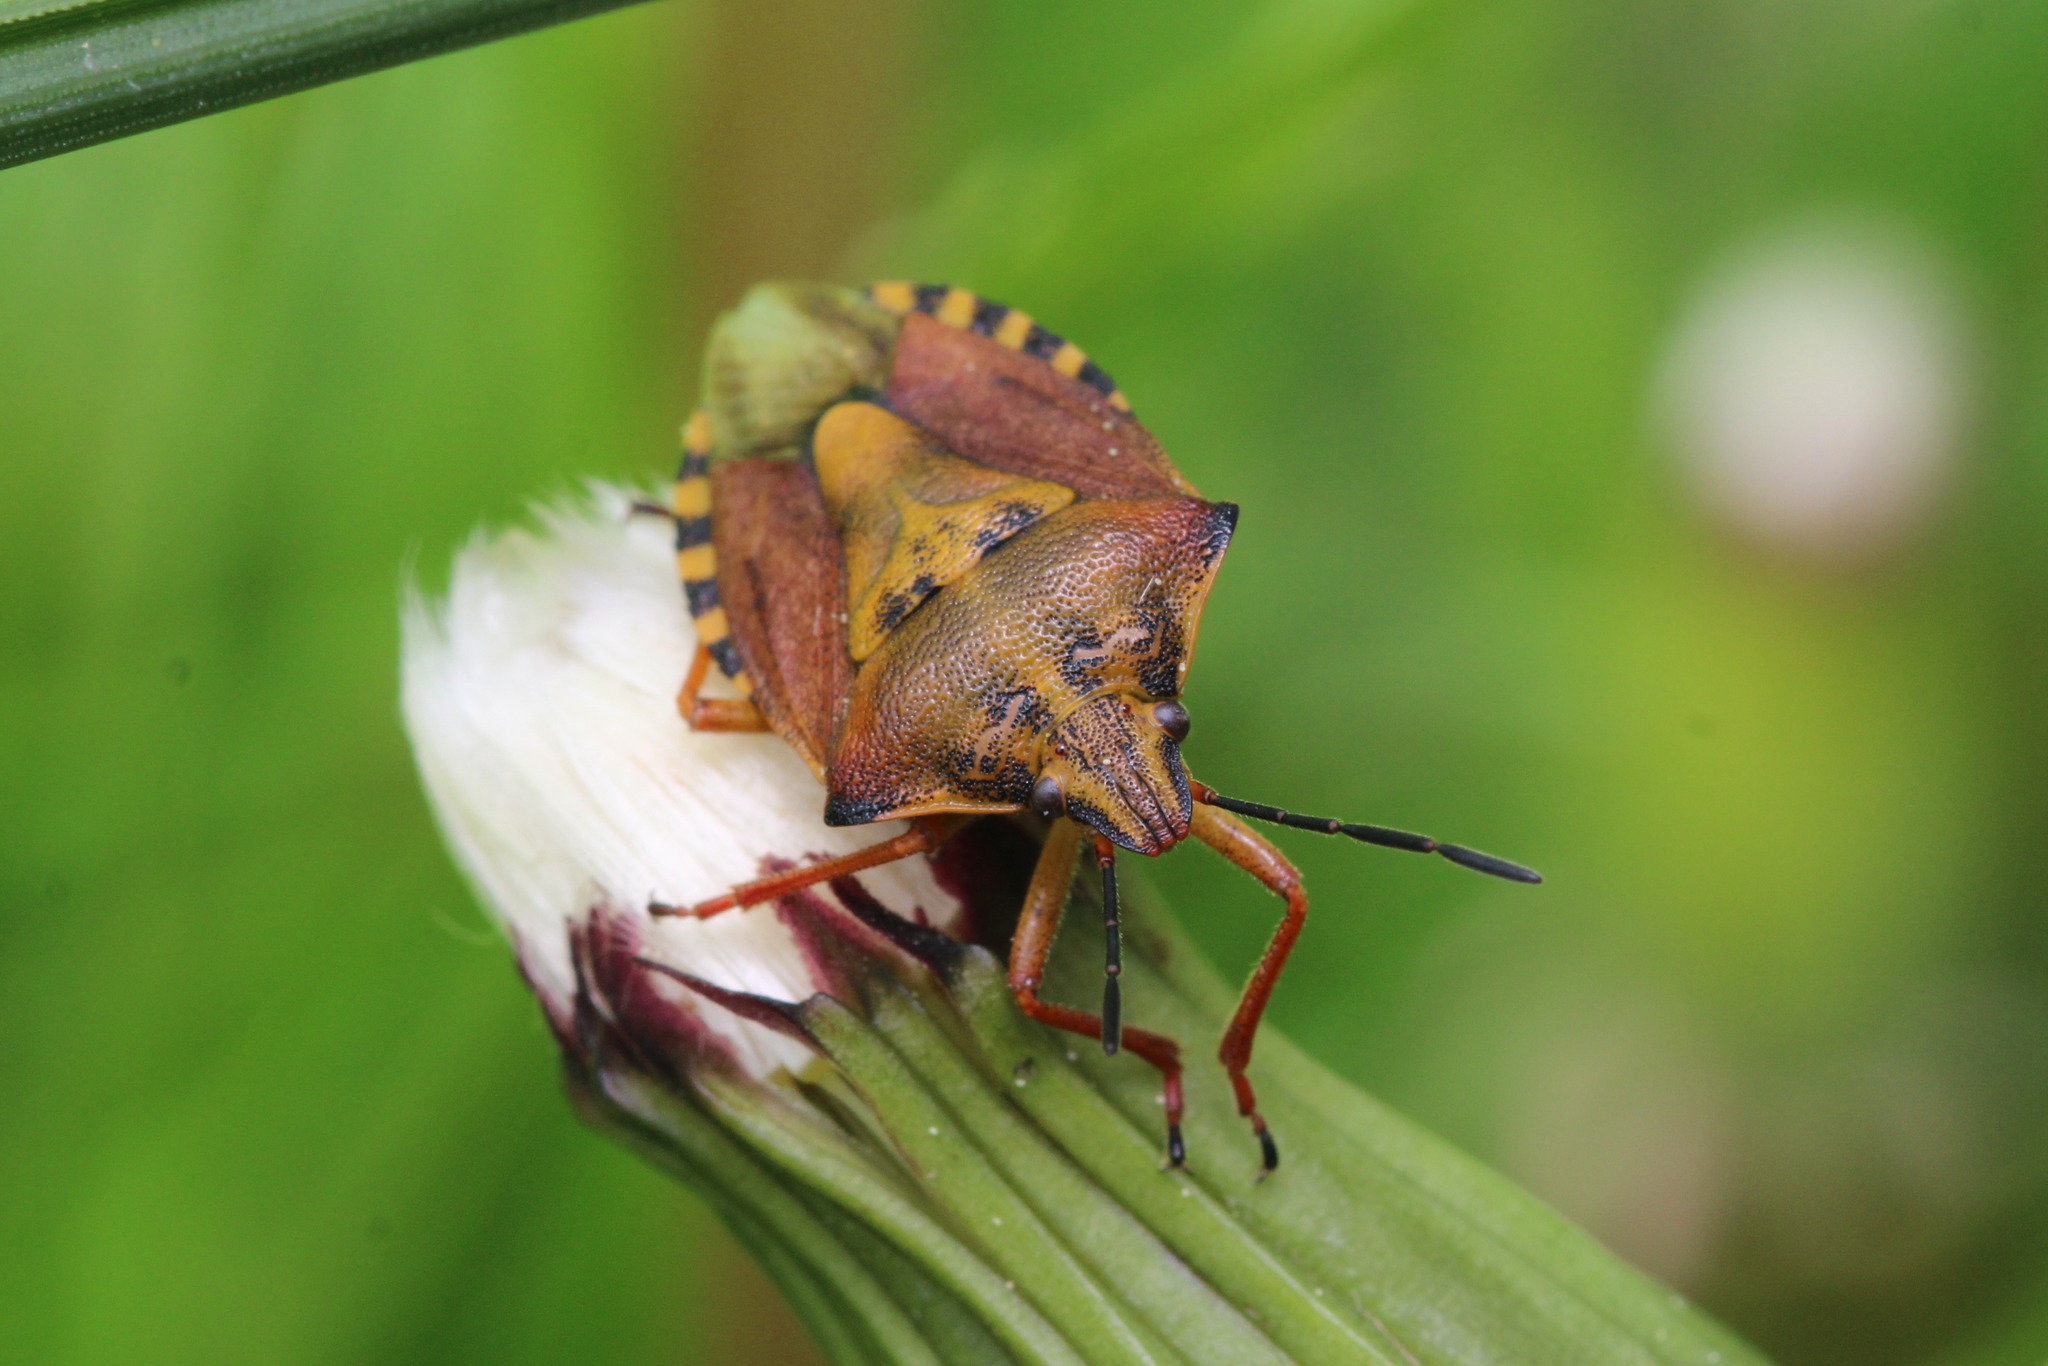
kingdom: Animalia
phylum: Arthropoda
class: Insecta
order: Hemiptera
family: Pentatomidae
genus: Carpocoris
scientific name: Carpocoris purpureipennis
